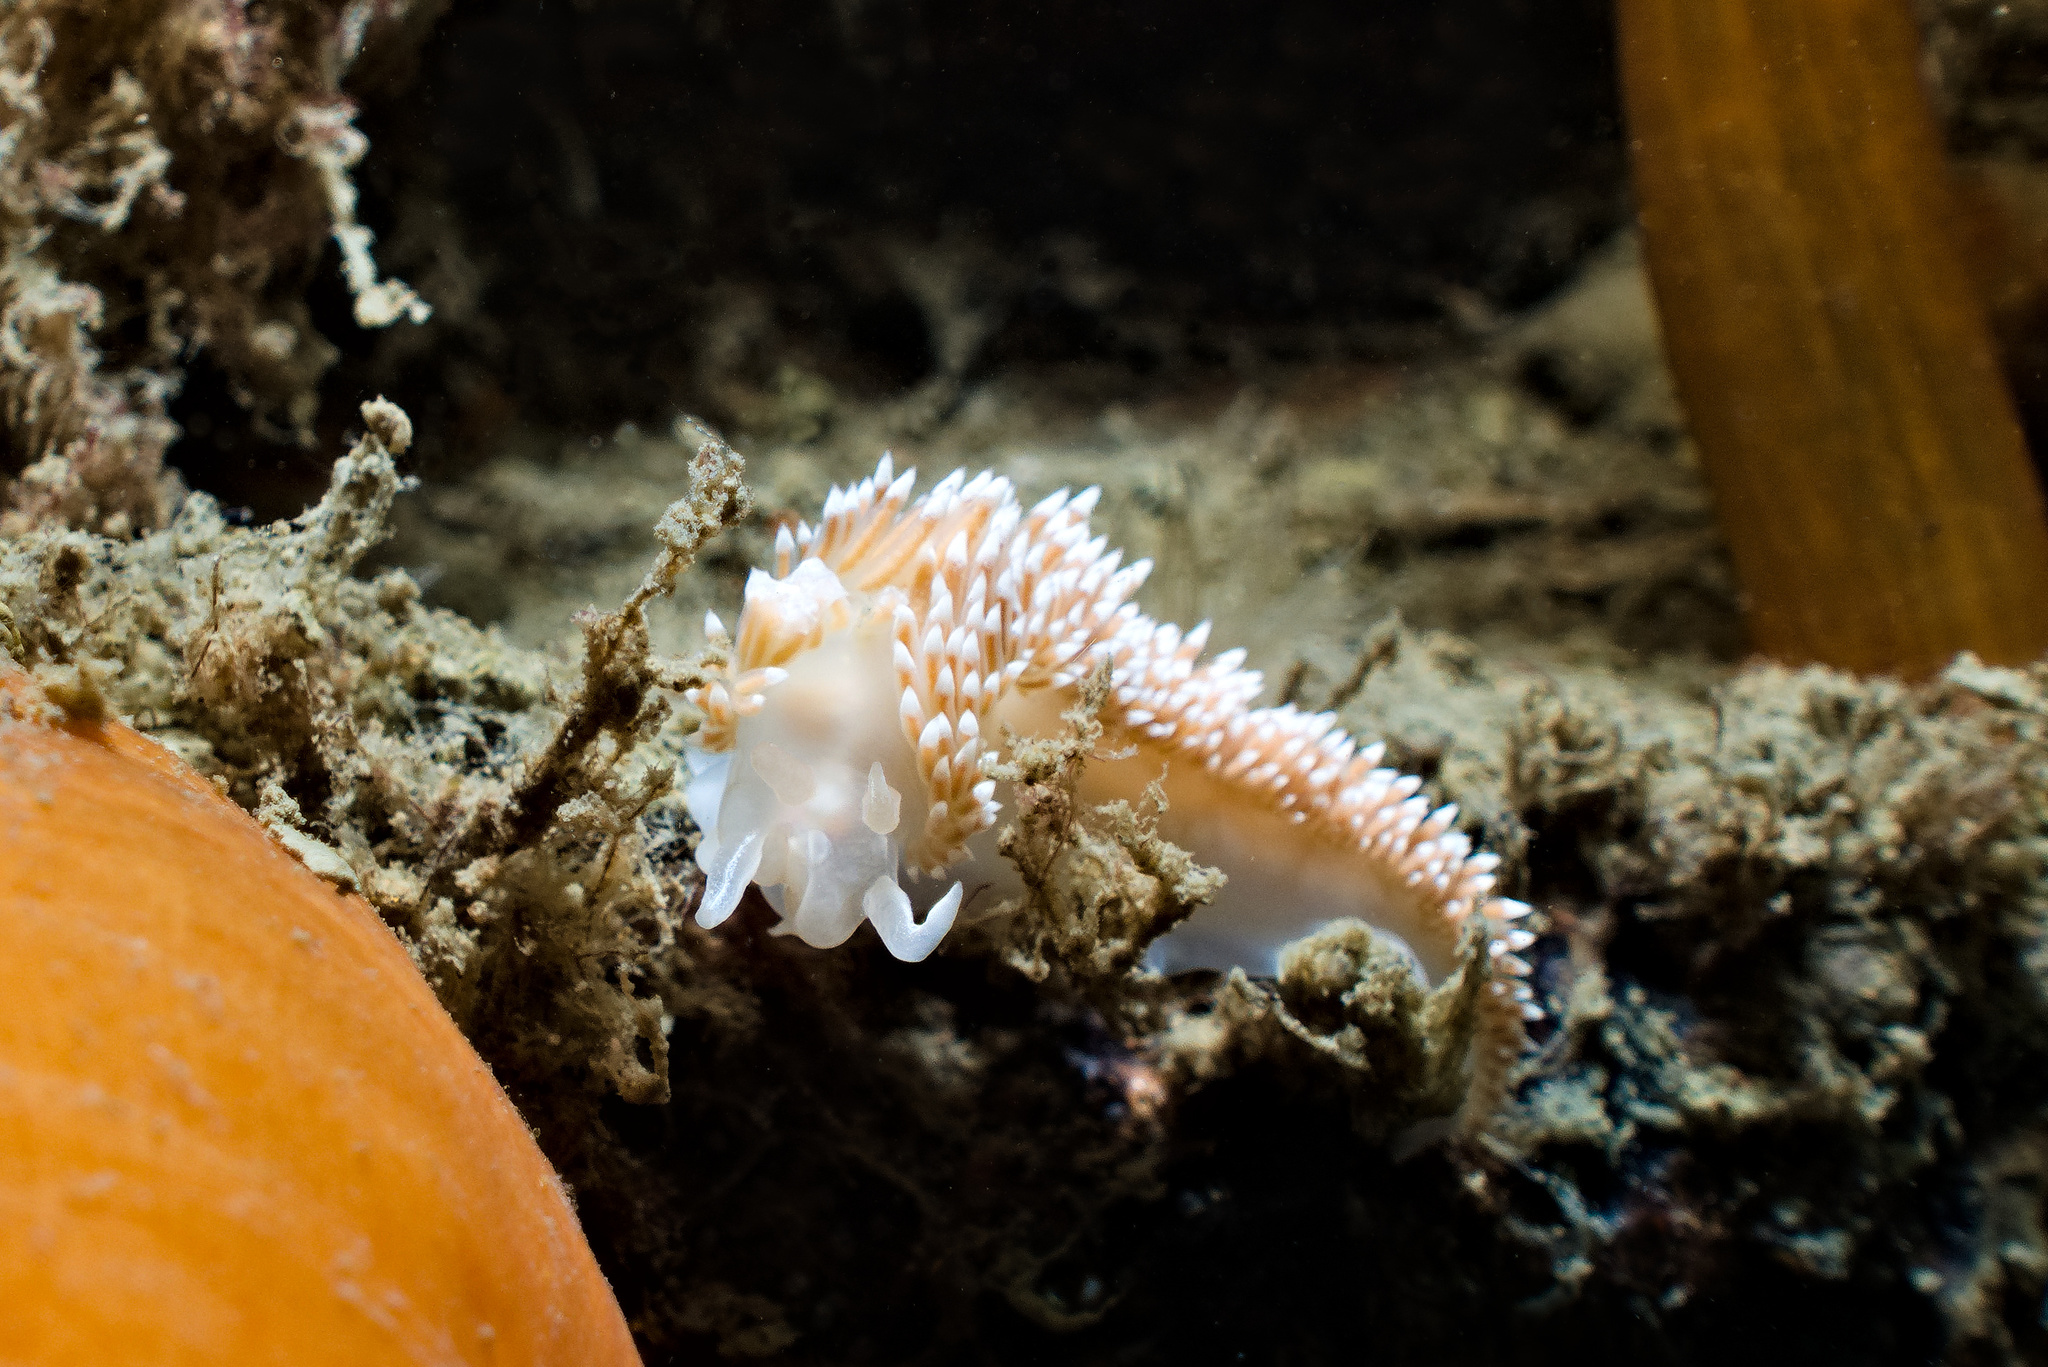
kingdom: Animalia
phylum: Mollusca
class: Gastropoda
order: Nudibranchia
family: Coryphellidae
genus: Coryphella
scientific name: Coryphella verrucosa
